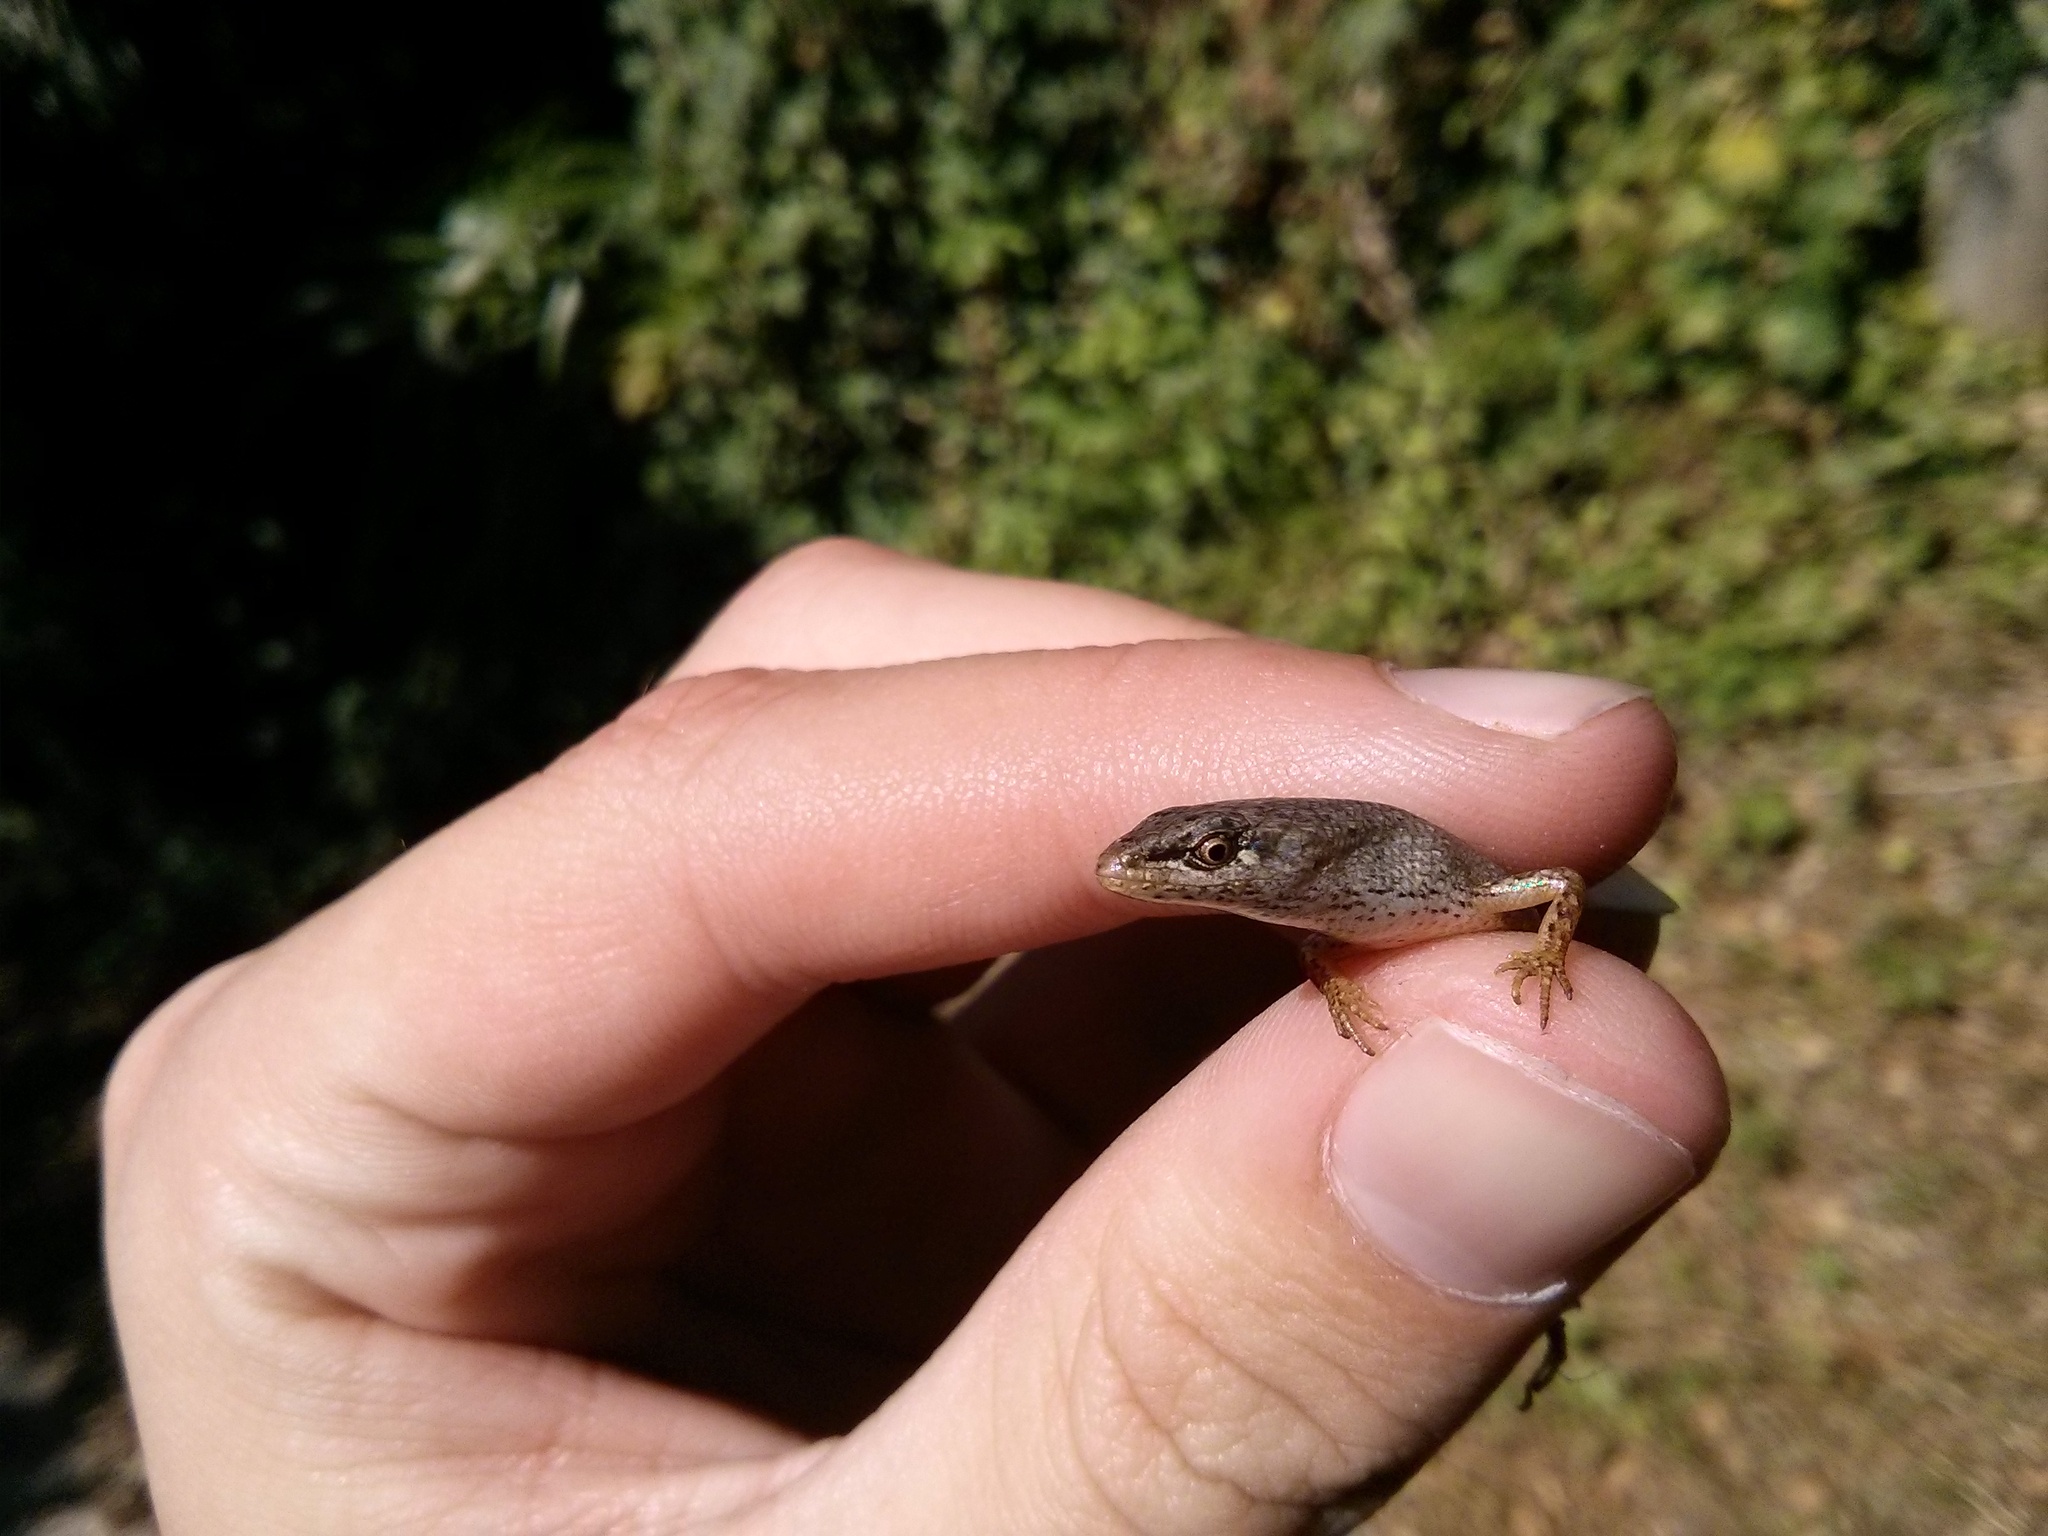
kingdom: Animalia
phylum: Chordata
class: Squamata
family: Scincidae
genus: Saproscincus
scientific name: Saproscincus mustelinus
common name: Southern weasel skink
